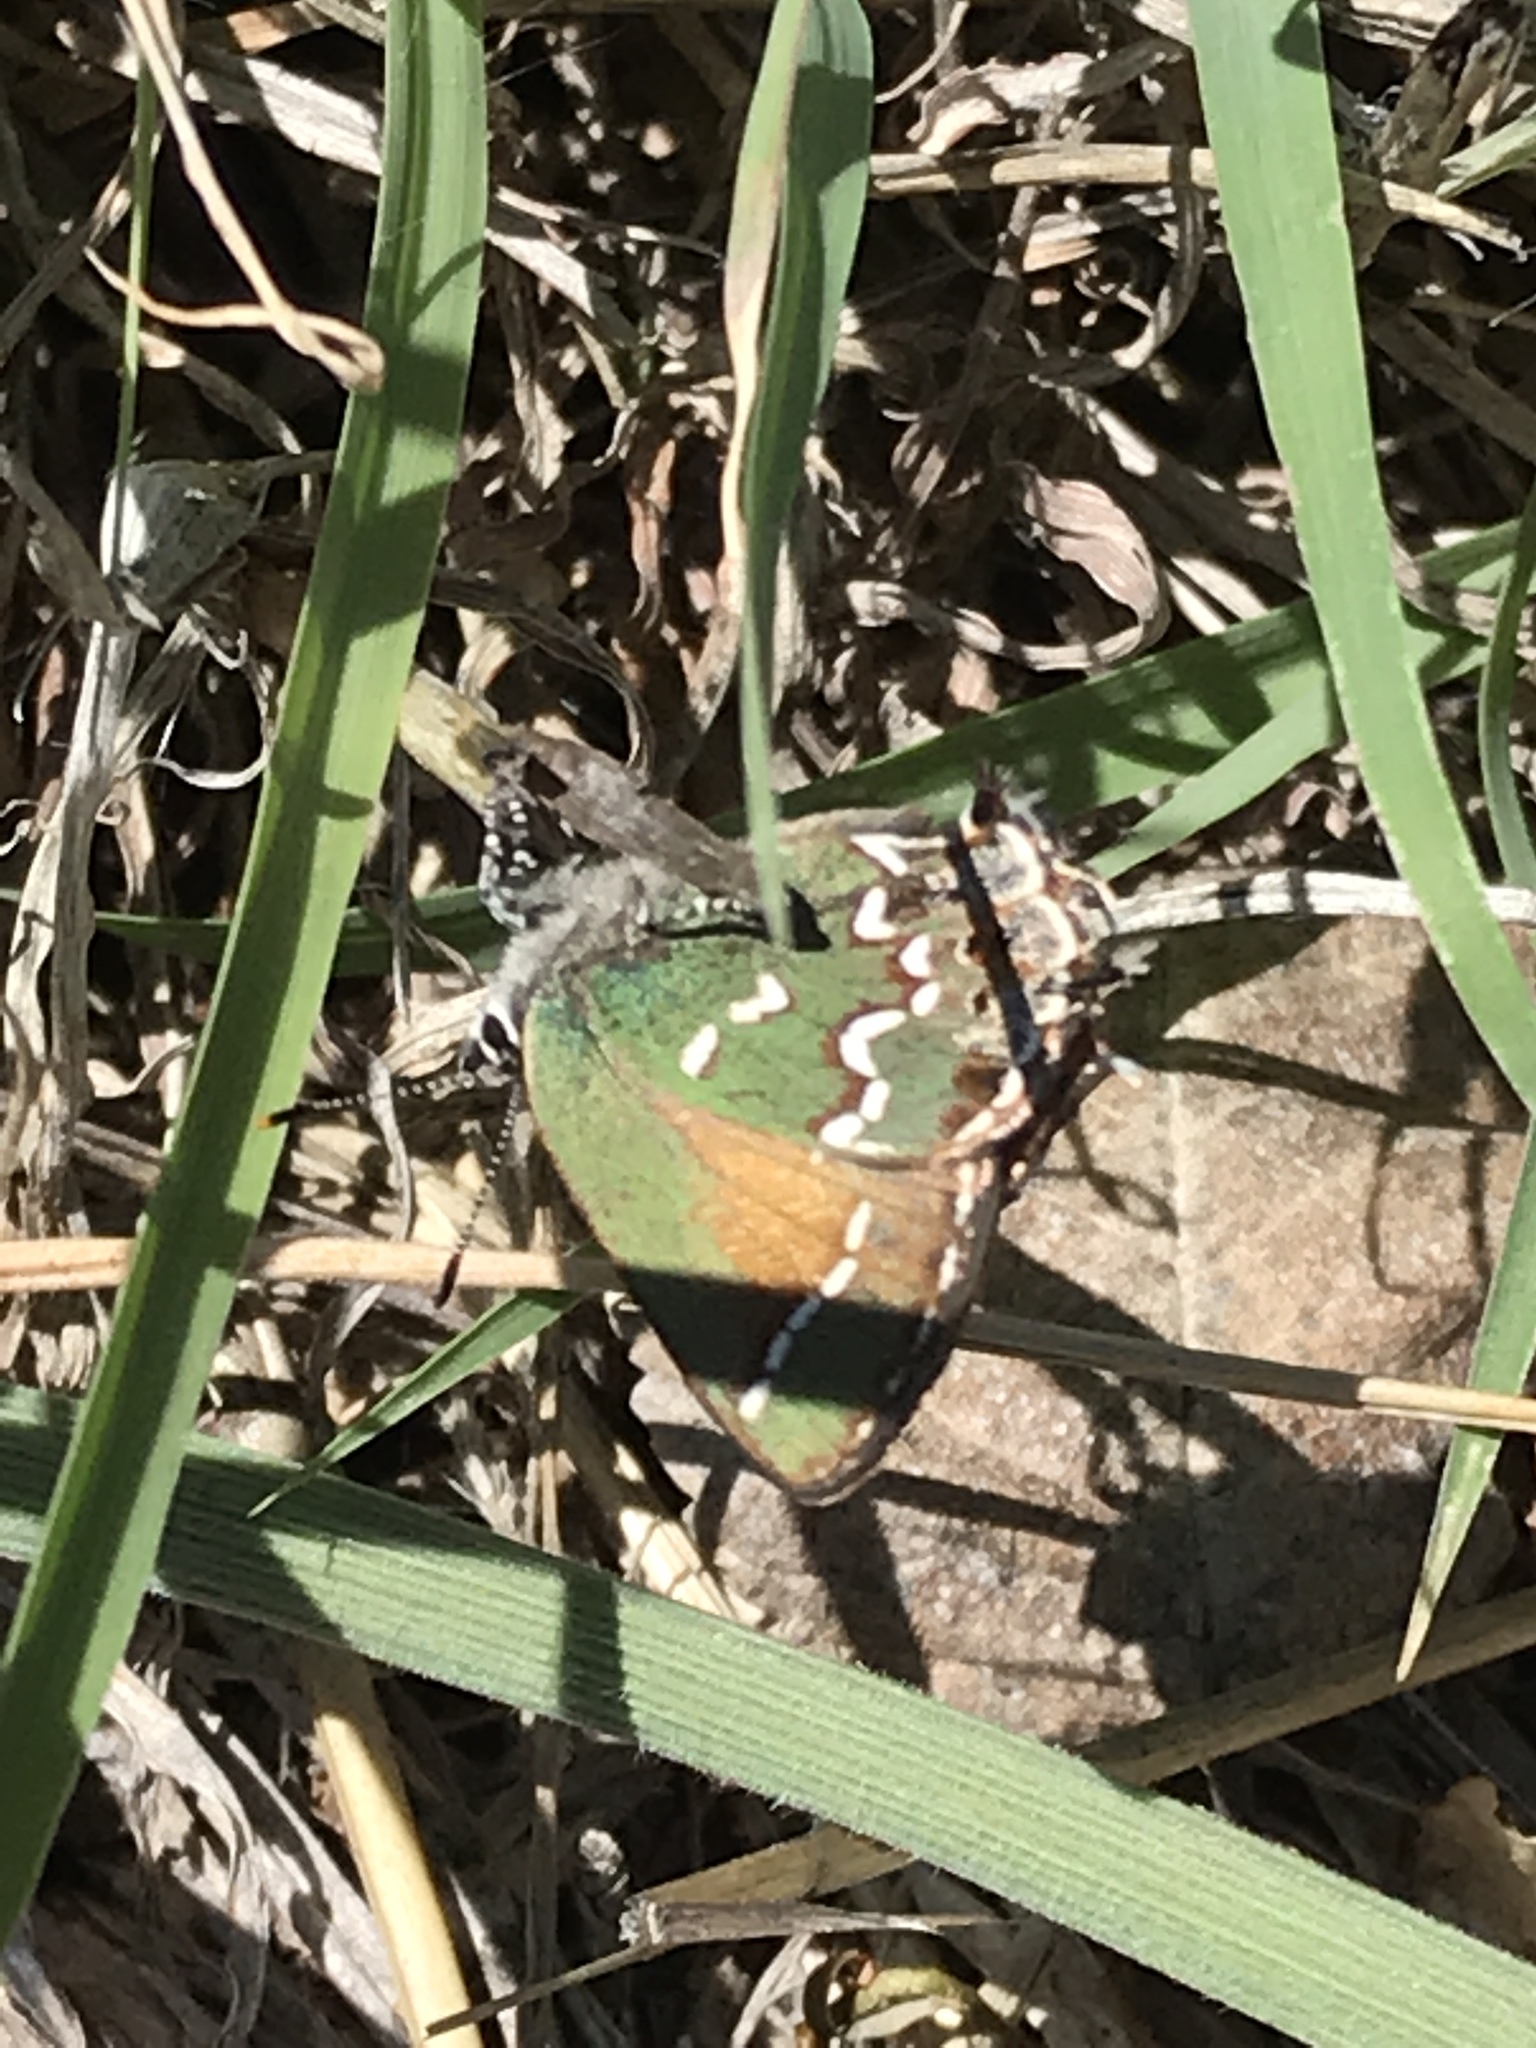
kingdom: Animalia
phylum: Arthropoda
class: Insecta
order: Lepidoptera
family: Lycaenidae
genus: Mitoura
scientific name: Mitoura gryneus
